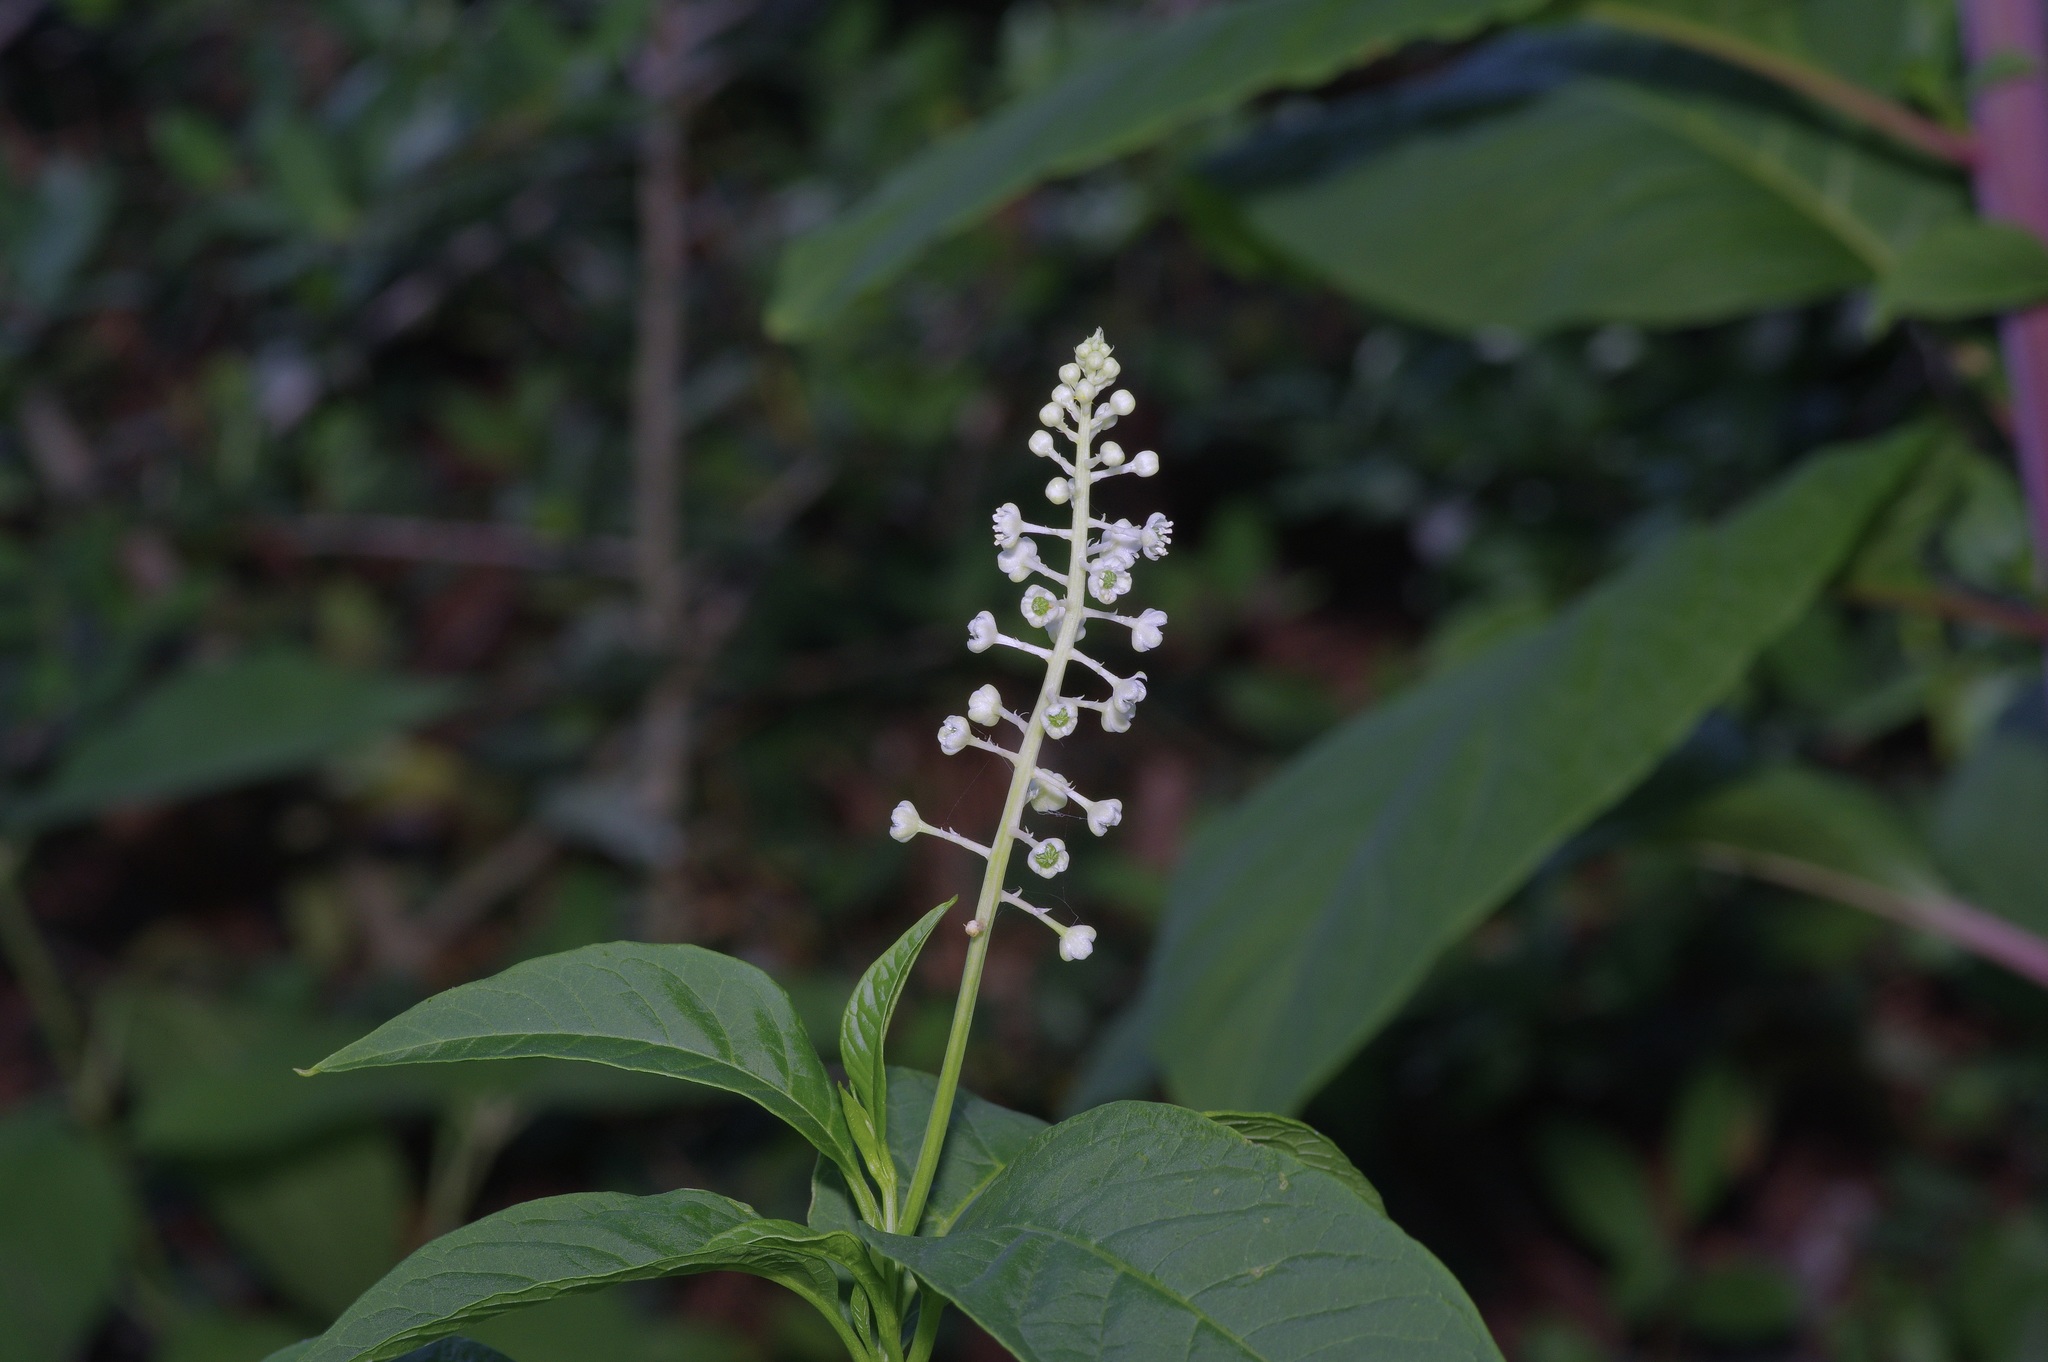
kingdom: Plantae
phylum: Tracheophyta
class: Magnoliopsida
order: Caryophyllales
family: Phytolaccaceae
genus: Phytolacca
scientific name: Phytolacca americana
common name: American pokeweed
